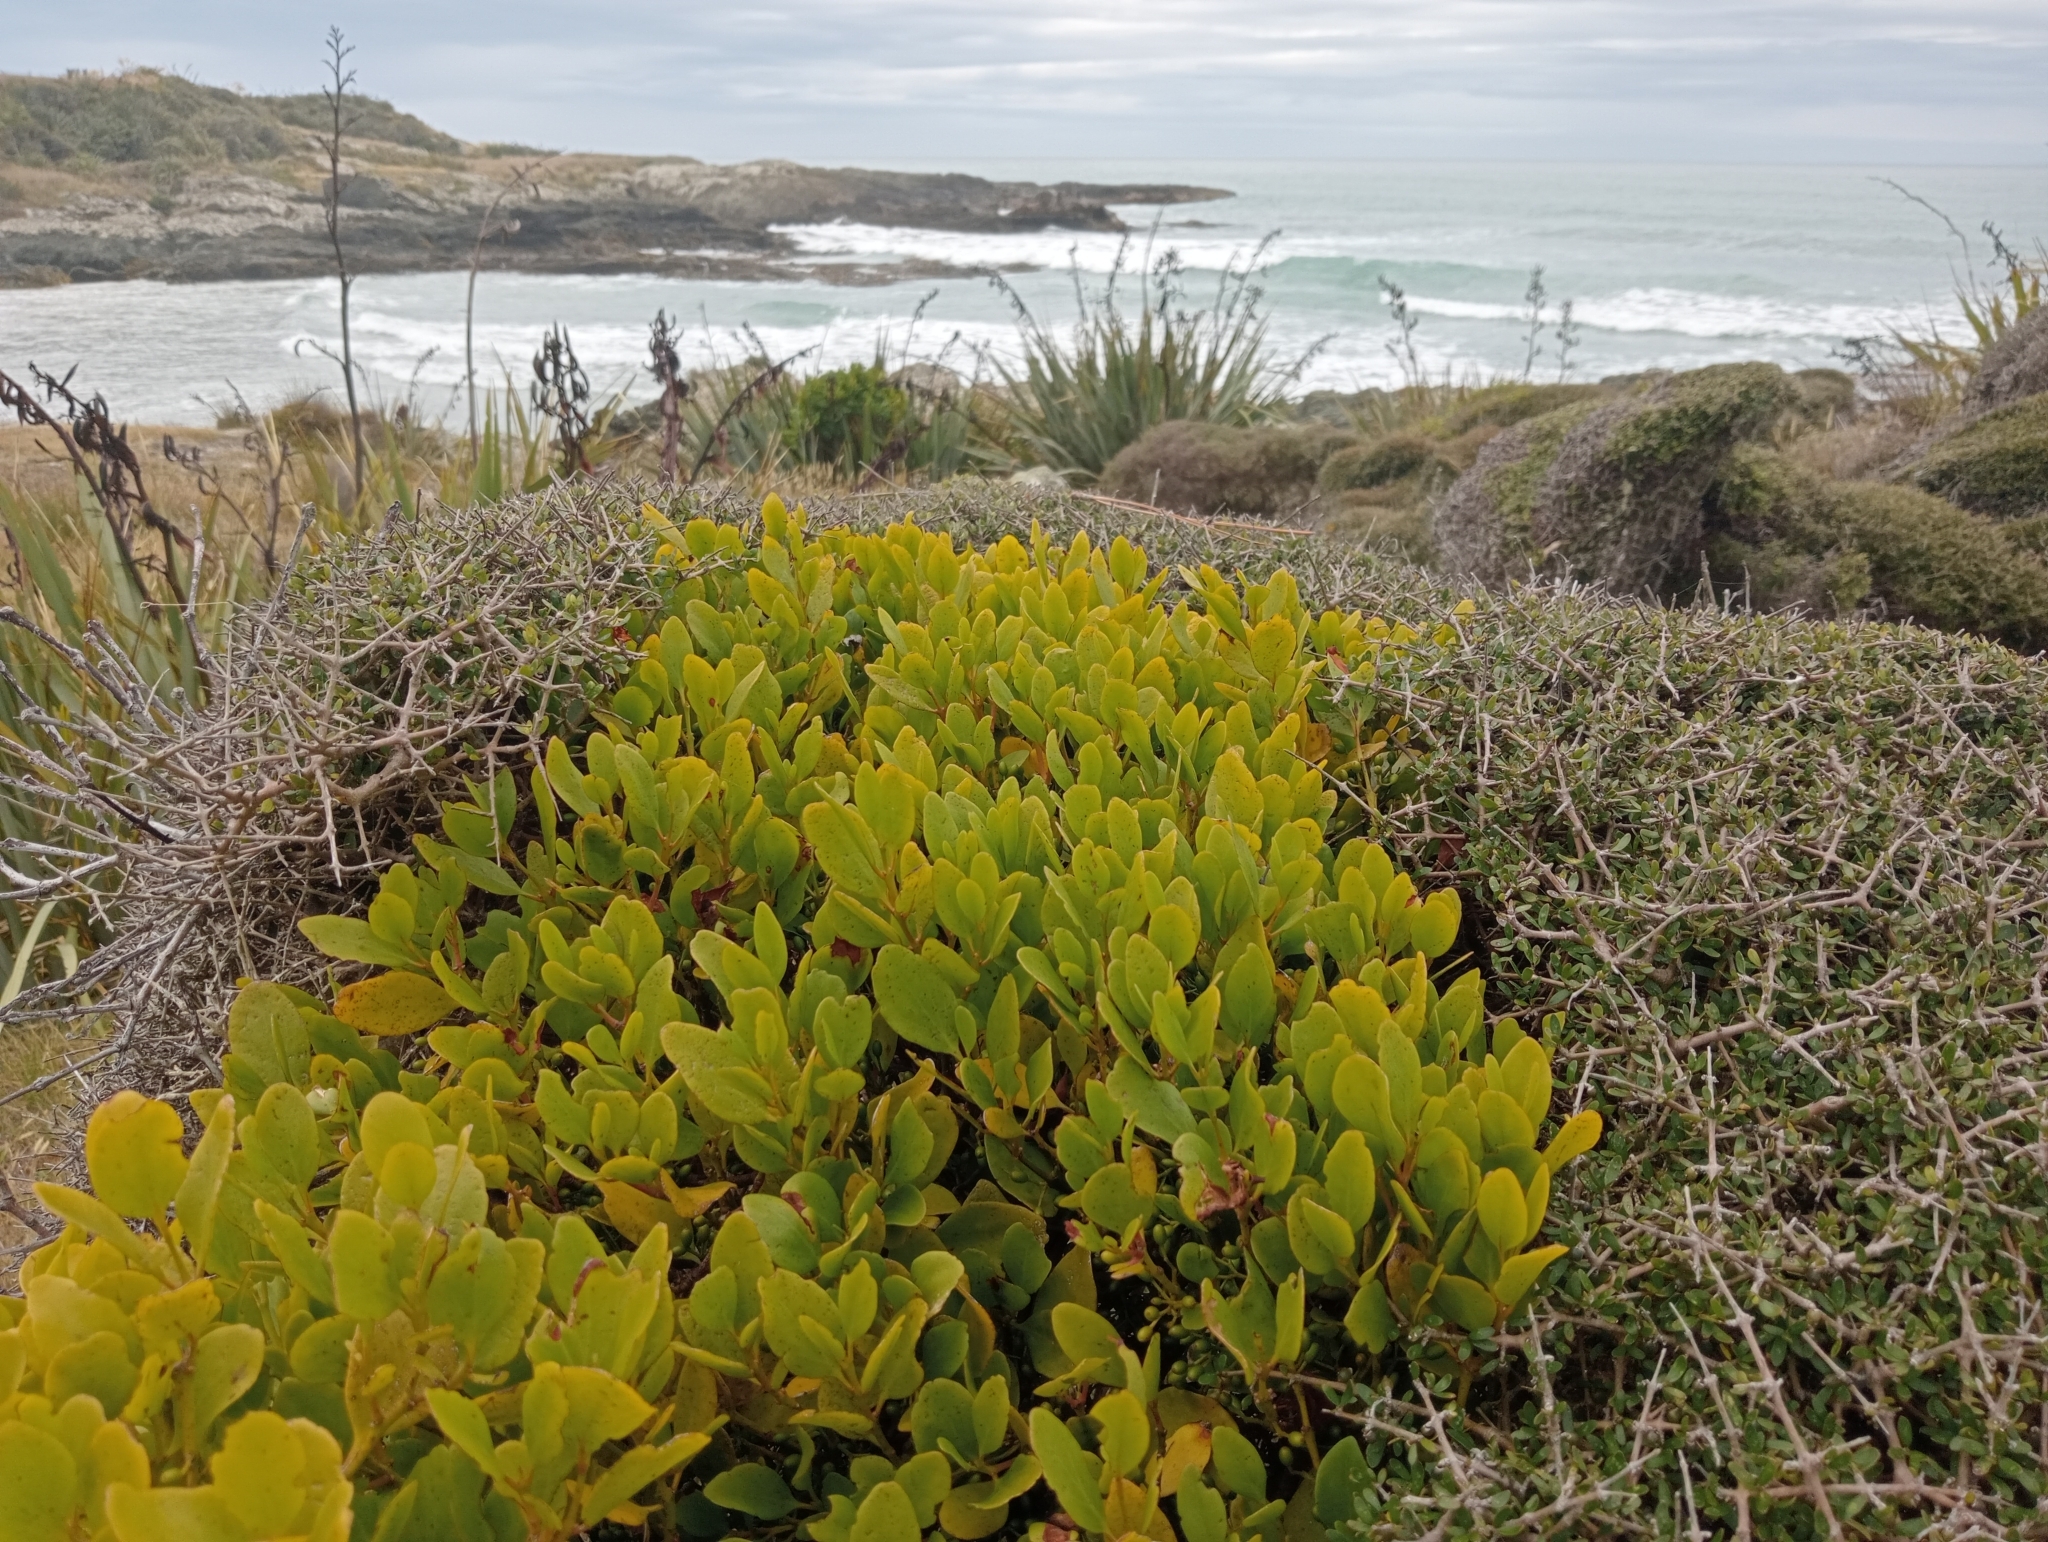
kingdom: Plantae
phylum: Tracheophyta
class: Magnoliopsida
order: Santalales
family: Loranthaceae
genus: Ileostylus
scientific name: Ileostylus micranthus
